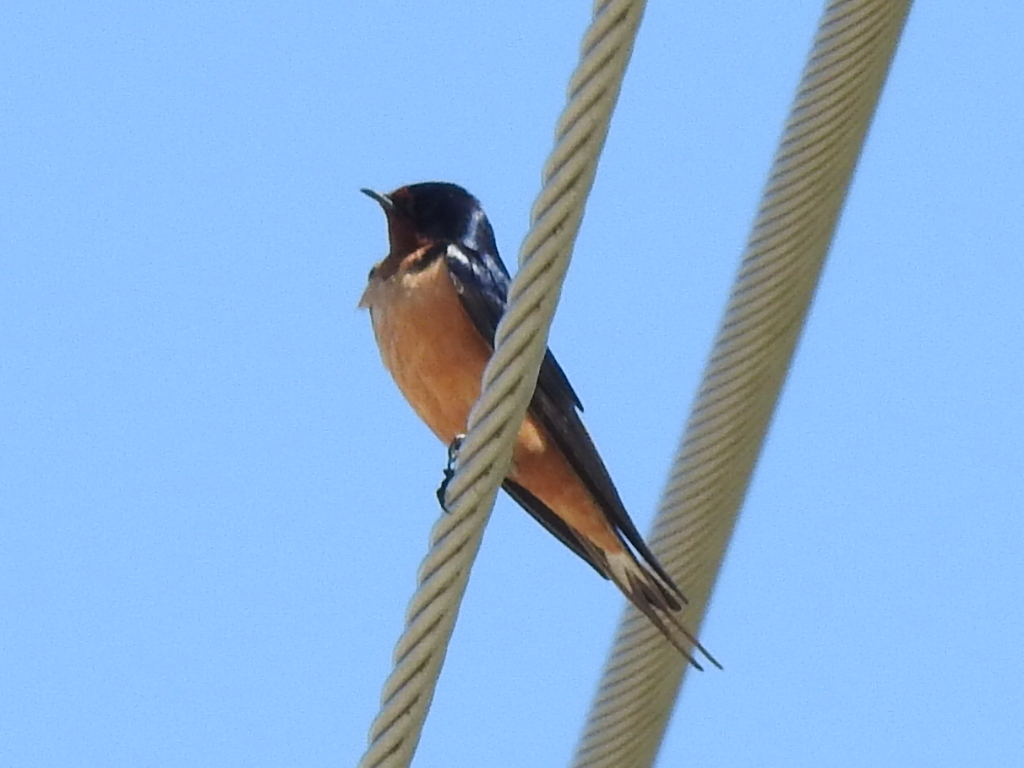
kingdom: Animalia
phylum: Chordata
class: Aves
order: Passeriformes
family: Hirundinidae
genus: Hirundo
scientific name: Hirundo rustica
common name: Barn swallow
